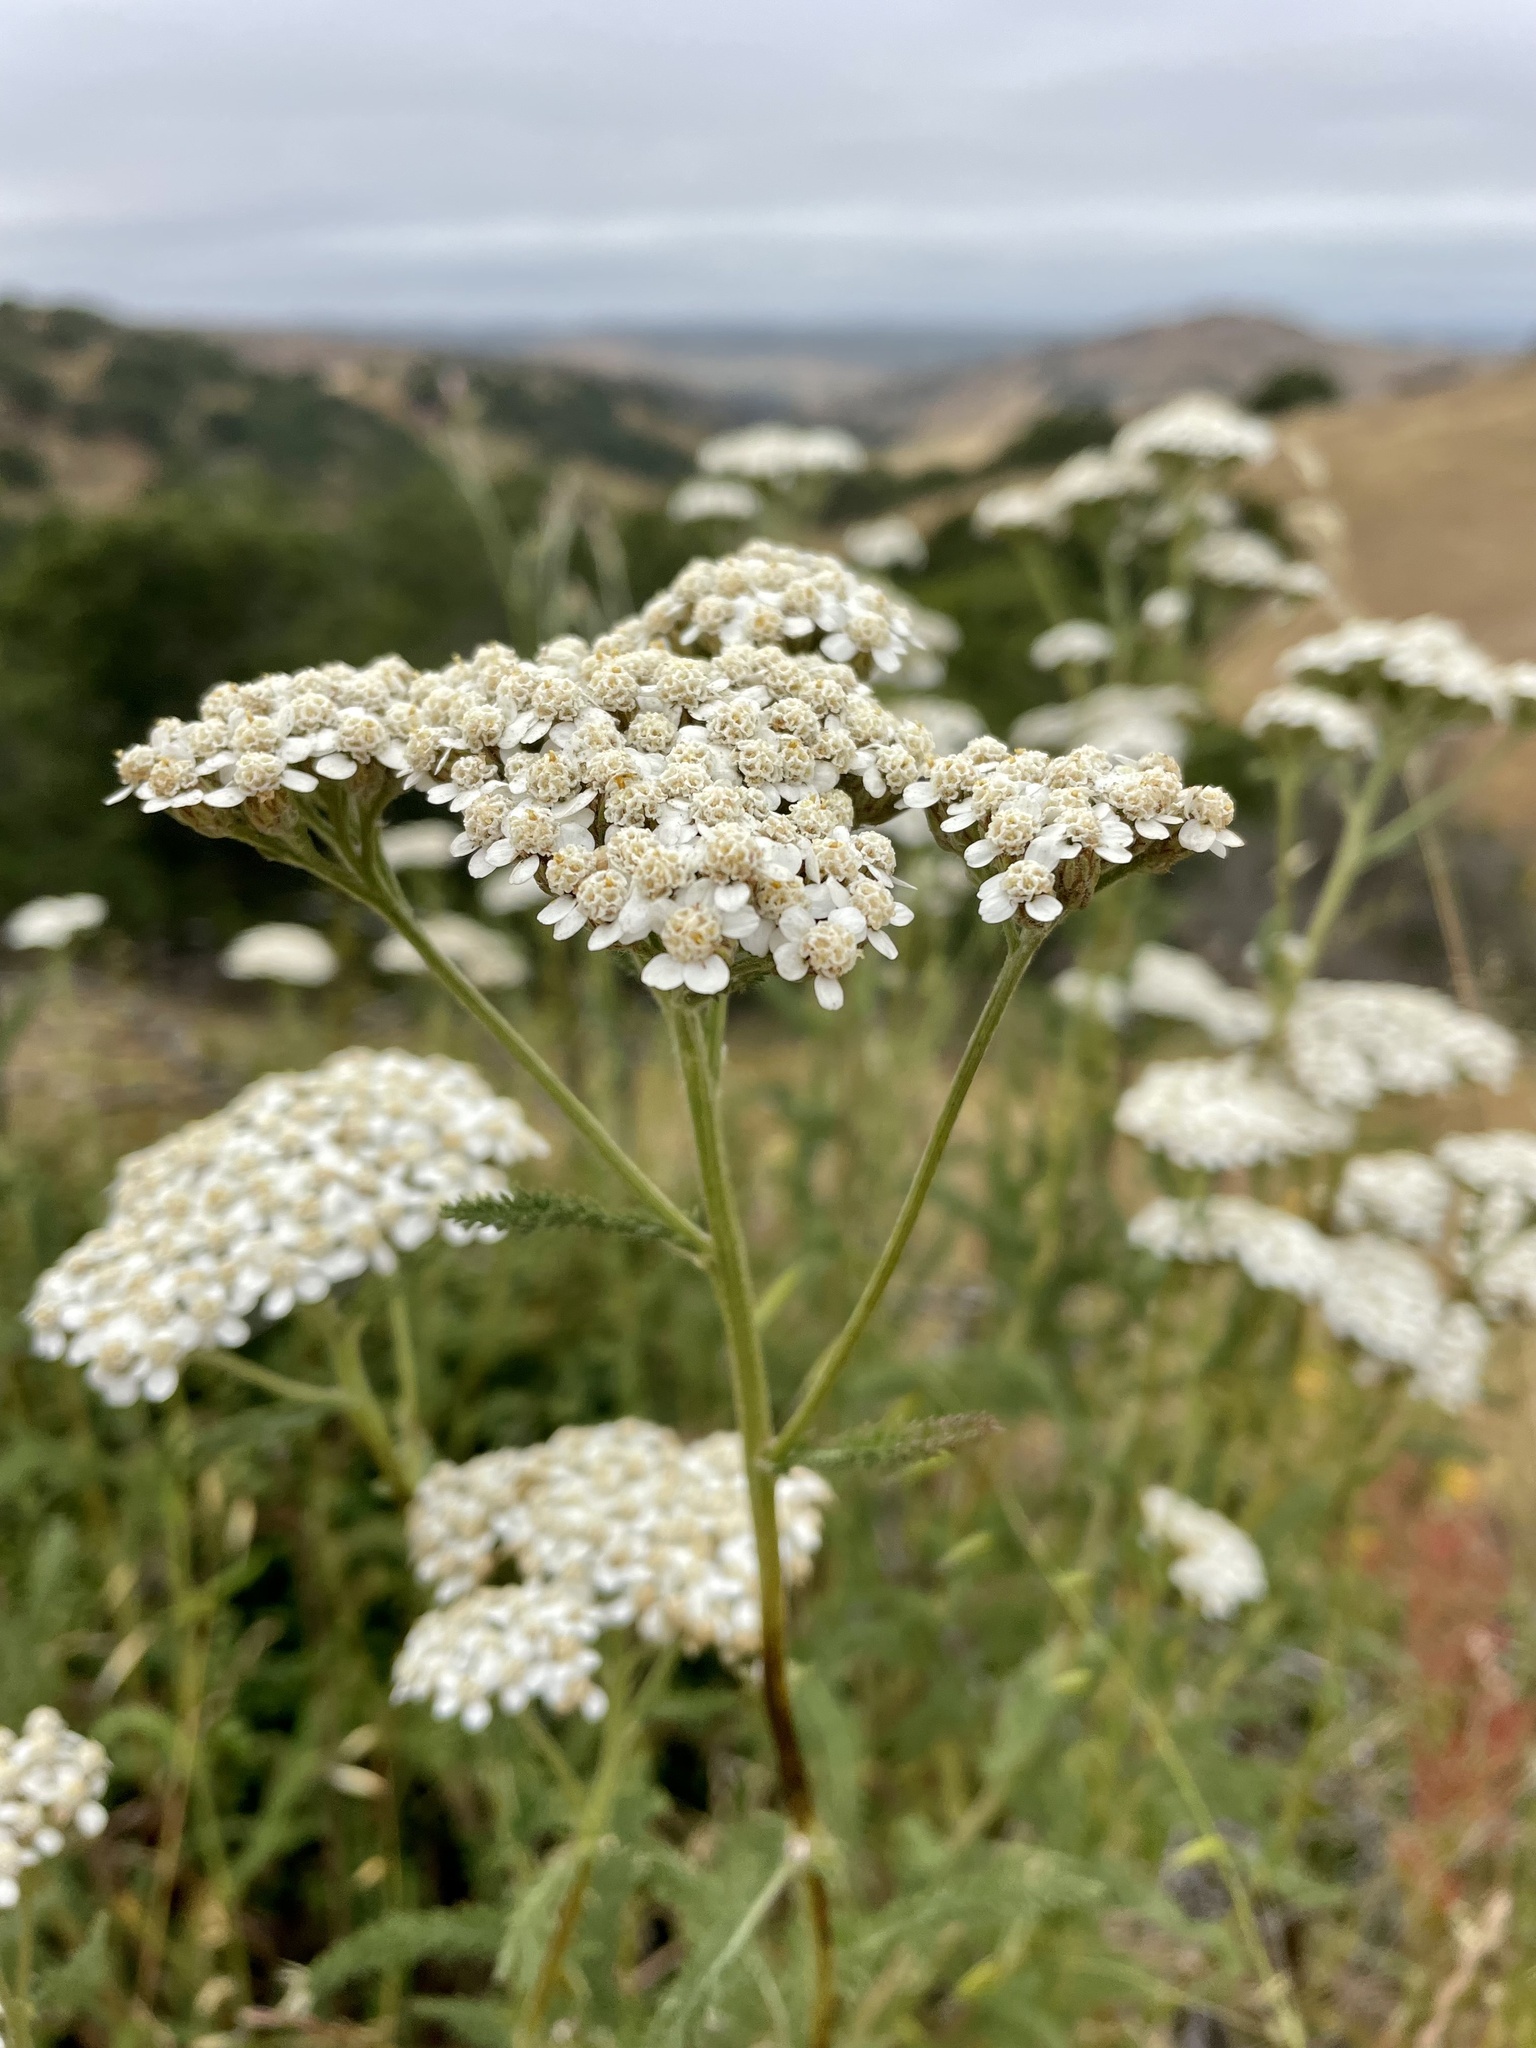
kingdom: Plantae
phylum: Tracheophyta
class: Magnoliopsida
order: Asterales
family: Asteraceae
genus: Achillea
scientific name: Achillea millefolium
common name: Yarrow
